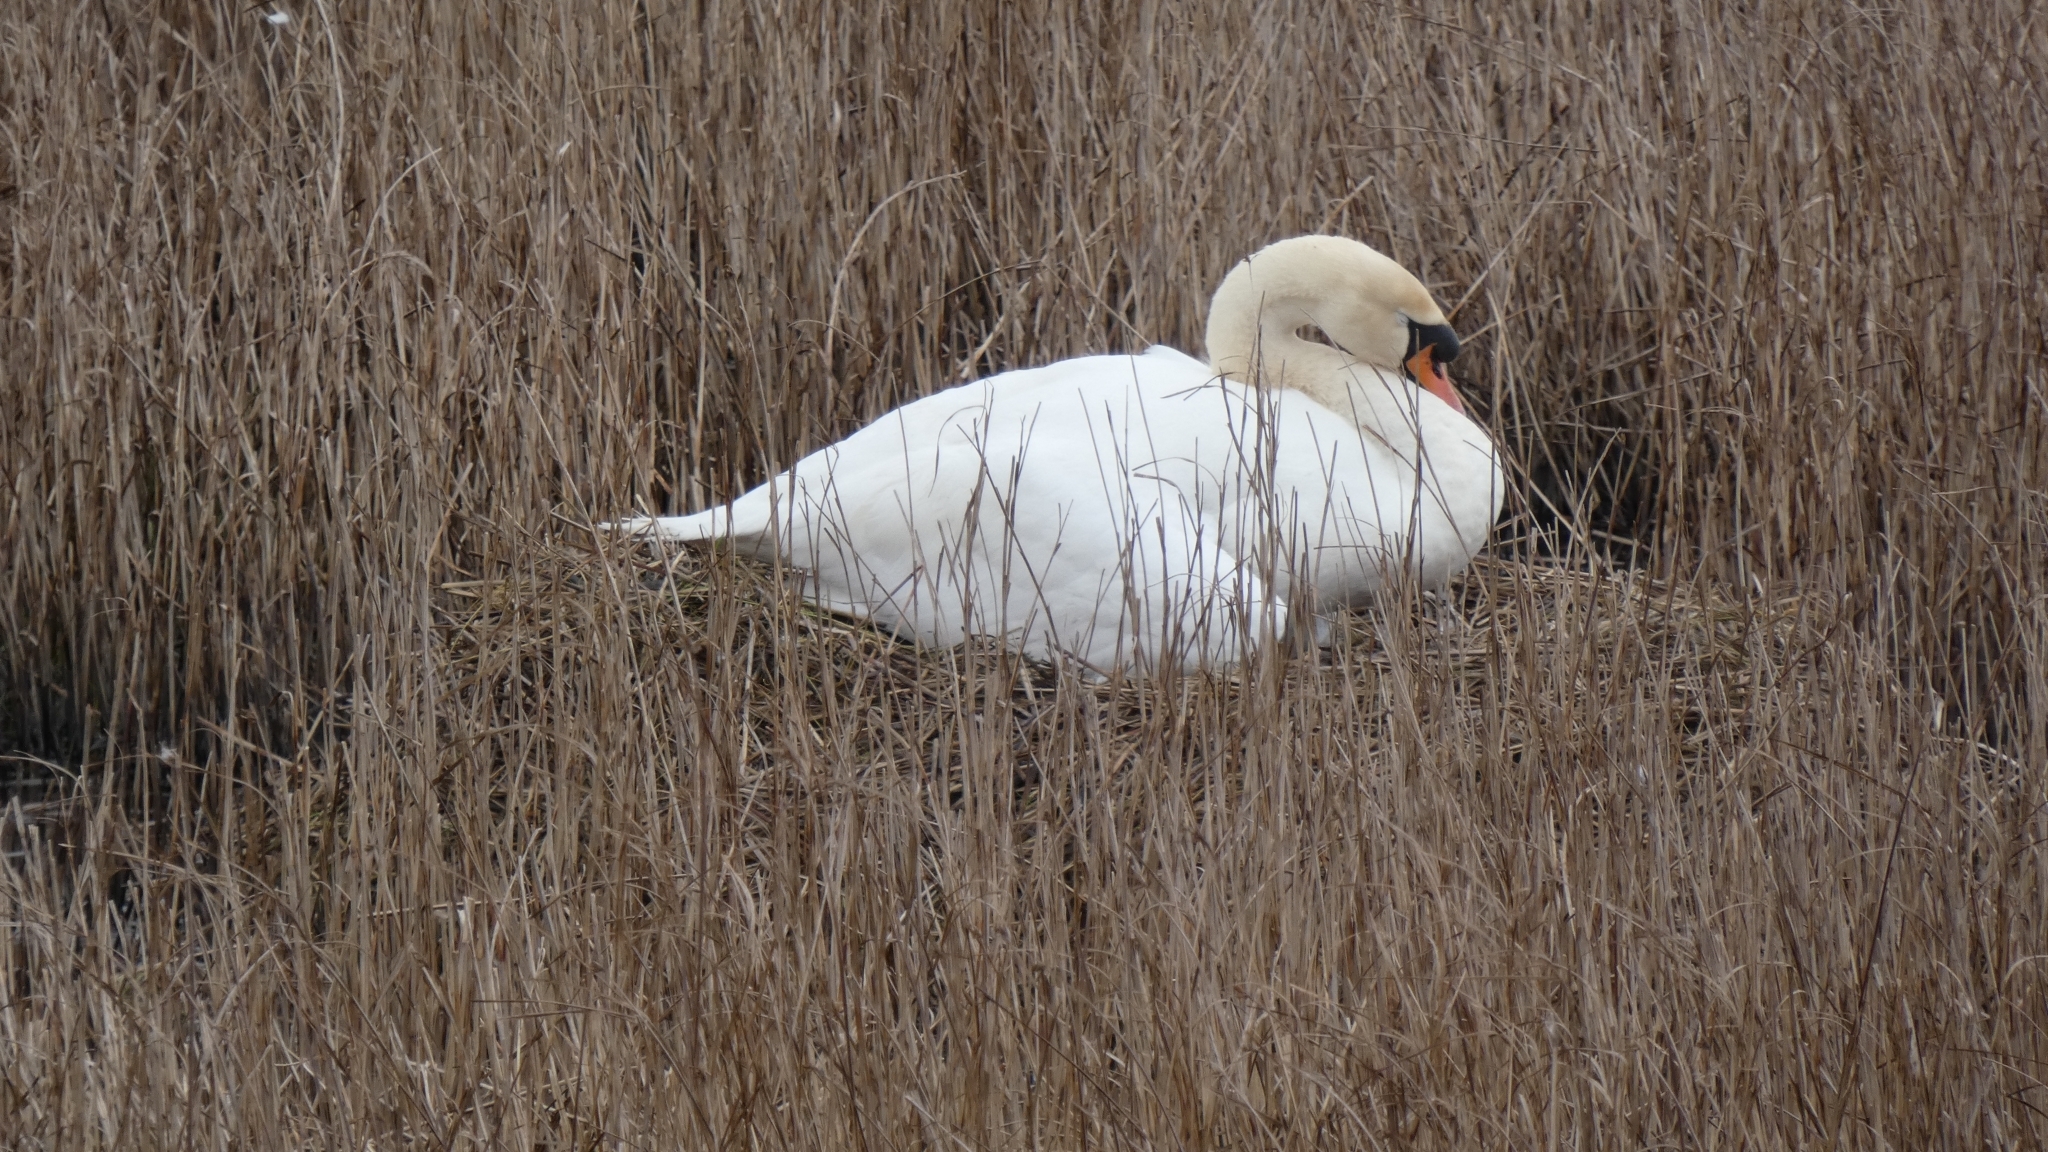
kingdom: Animalia
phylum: Chordata
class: Aves
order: Anseriformes
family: Anatidae
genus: Cygnus
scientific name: Cygnus olor
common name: Mute swan
